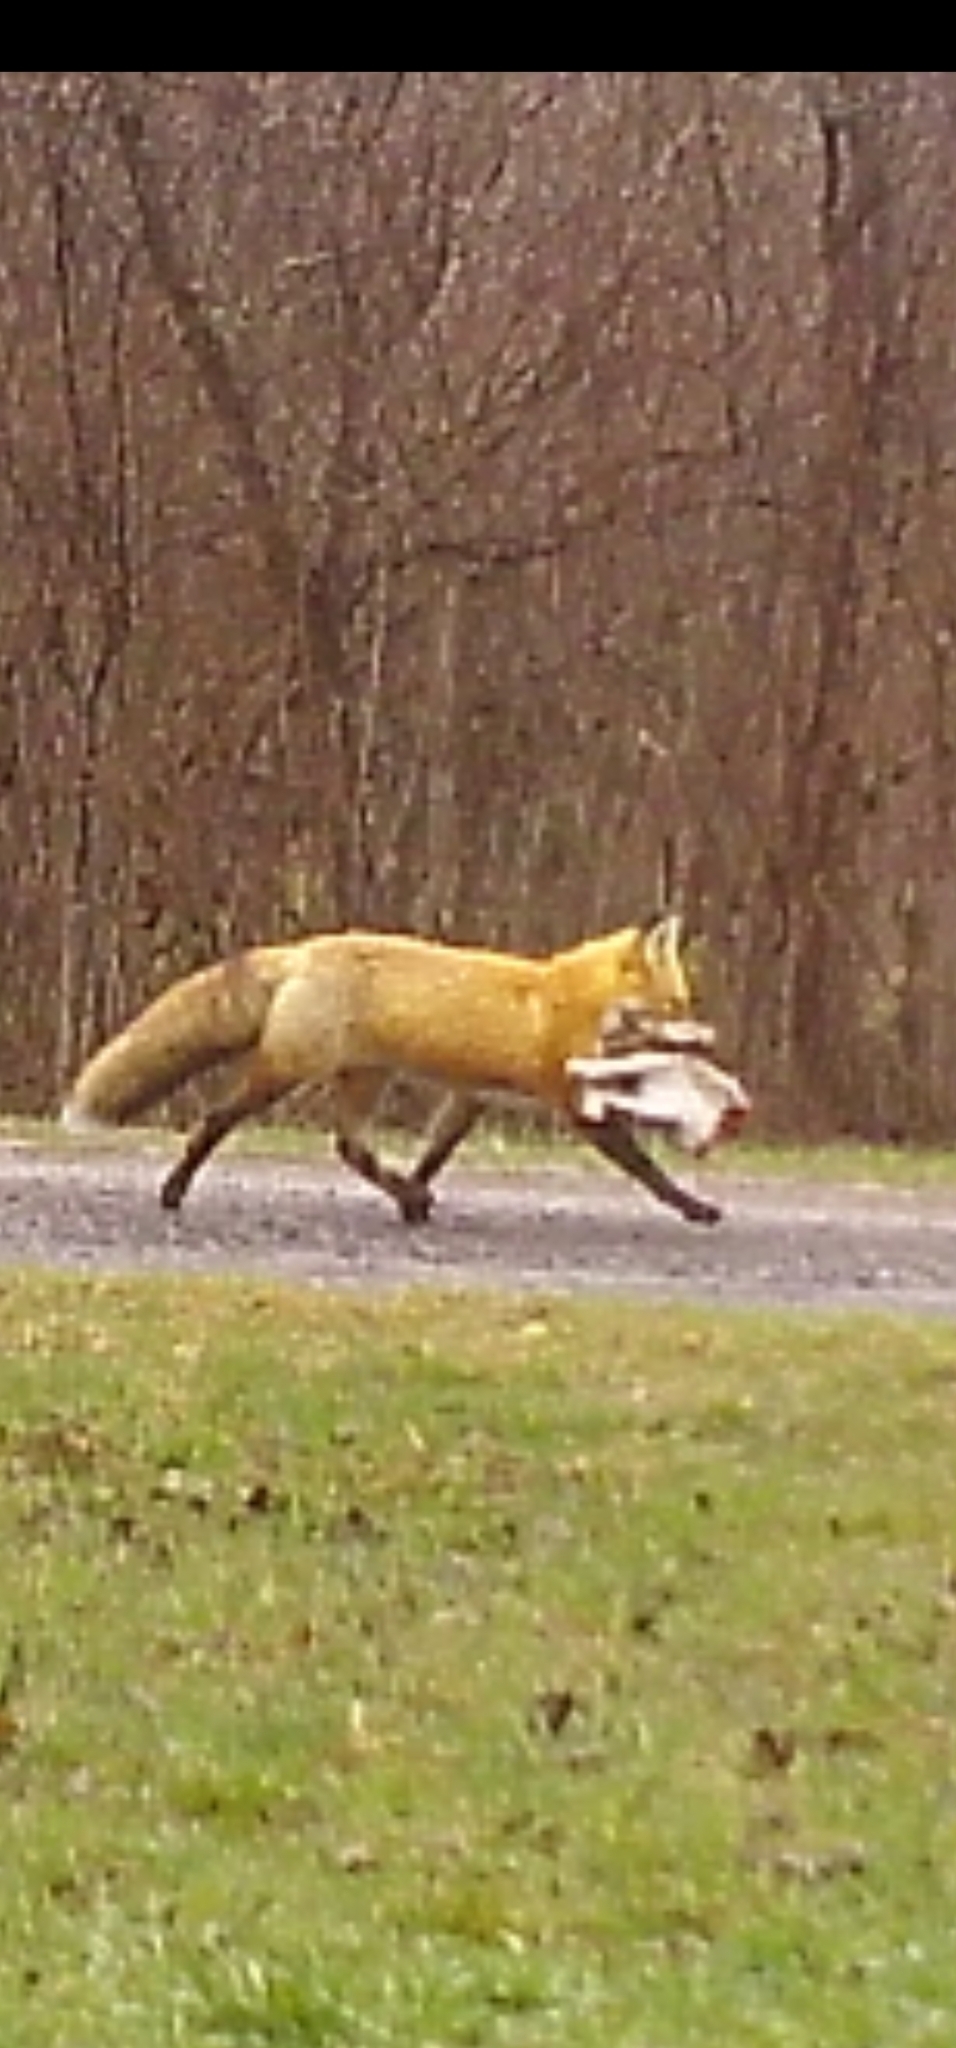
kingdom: Animalia
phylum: Chordata
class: Mammalia
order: Carnivora
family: Canidae
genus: Vulpes
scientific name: Vulpes vulpes
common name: Red fox
